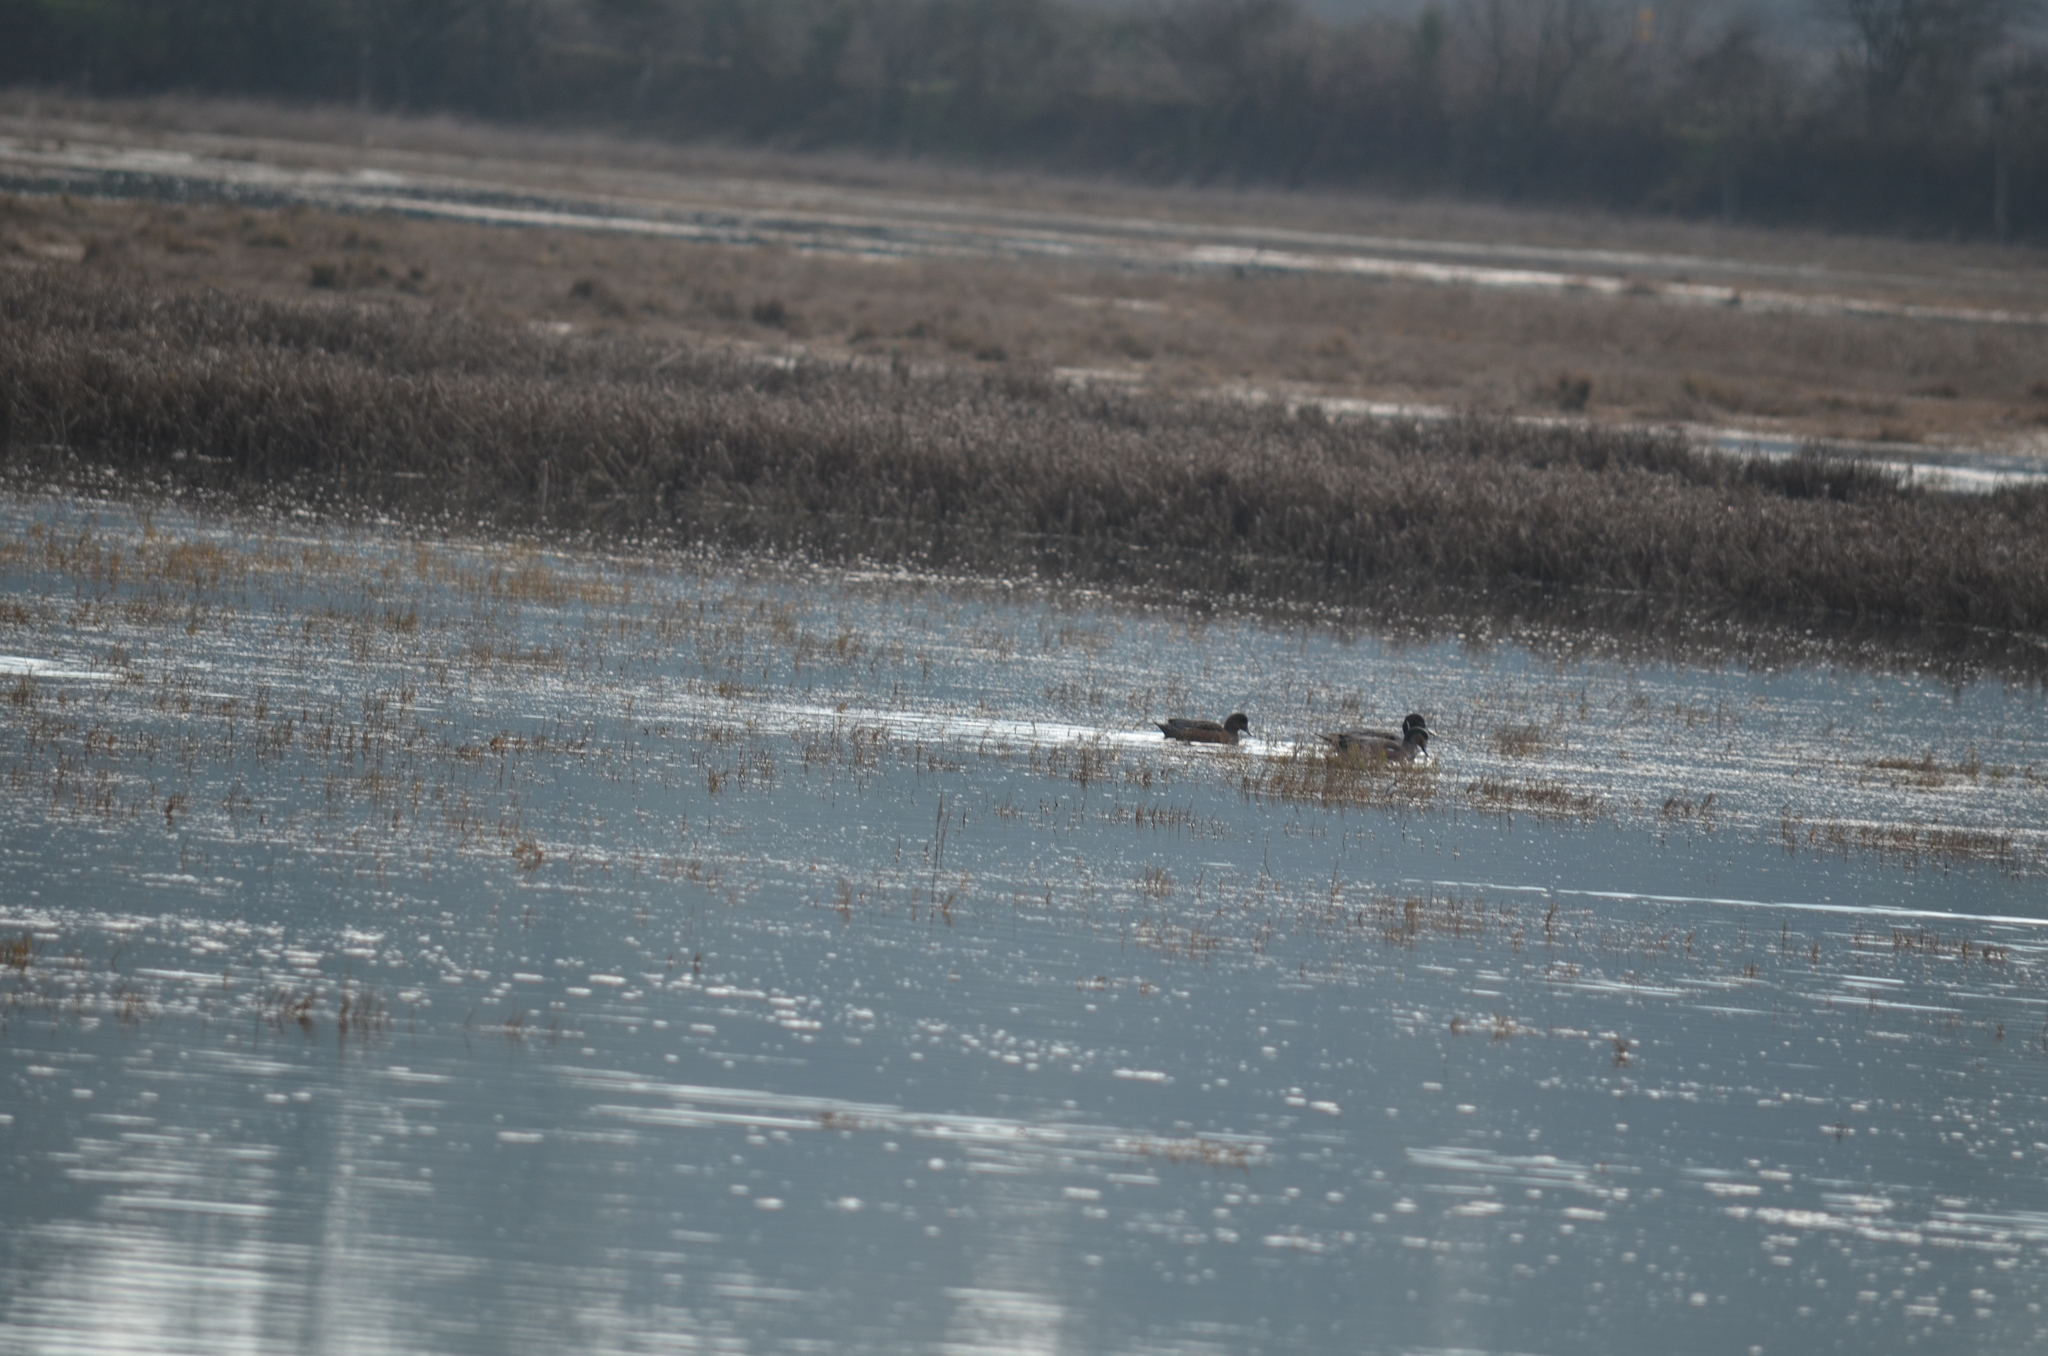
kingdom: Animalia
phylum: Chordata
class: Aves
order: Anseriformes
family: Anatidae
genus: Mareca
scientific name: Mareca americana
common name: American wigeon
